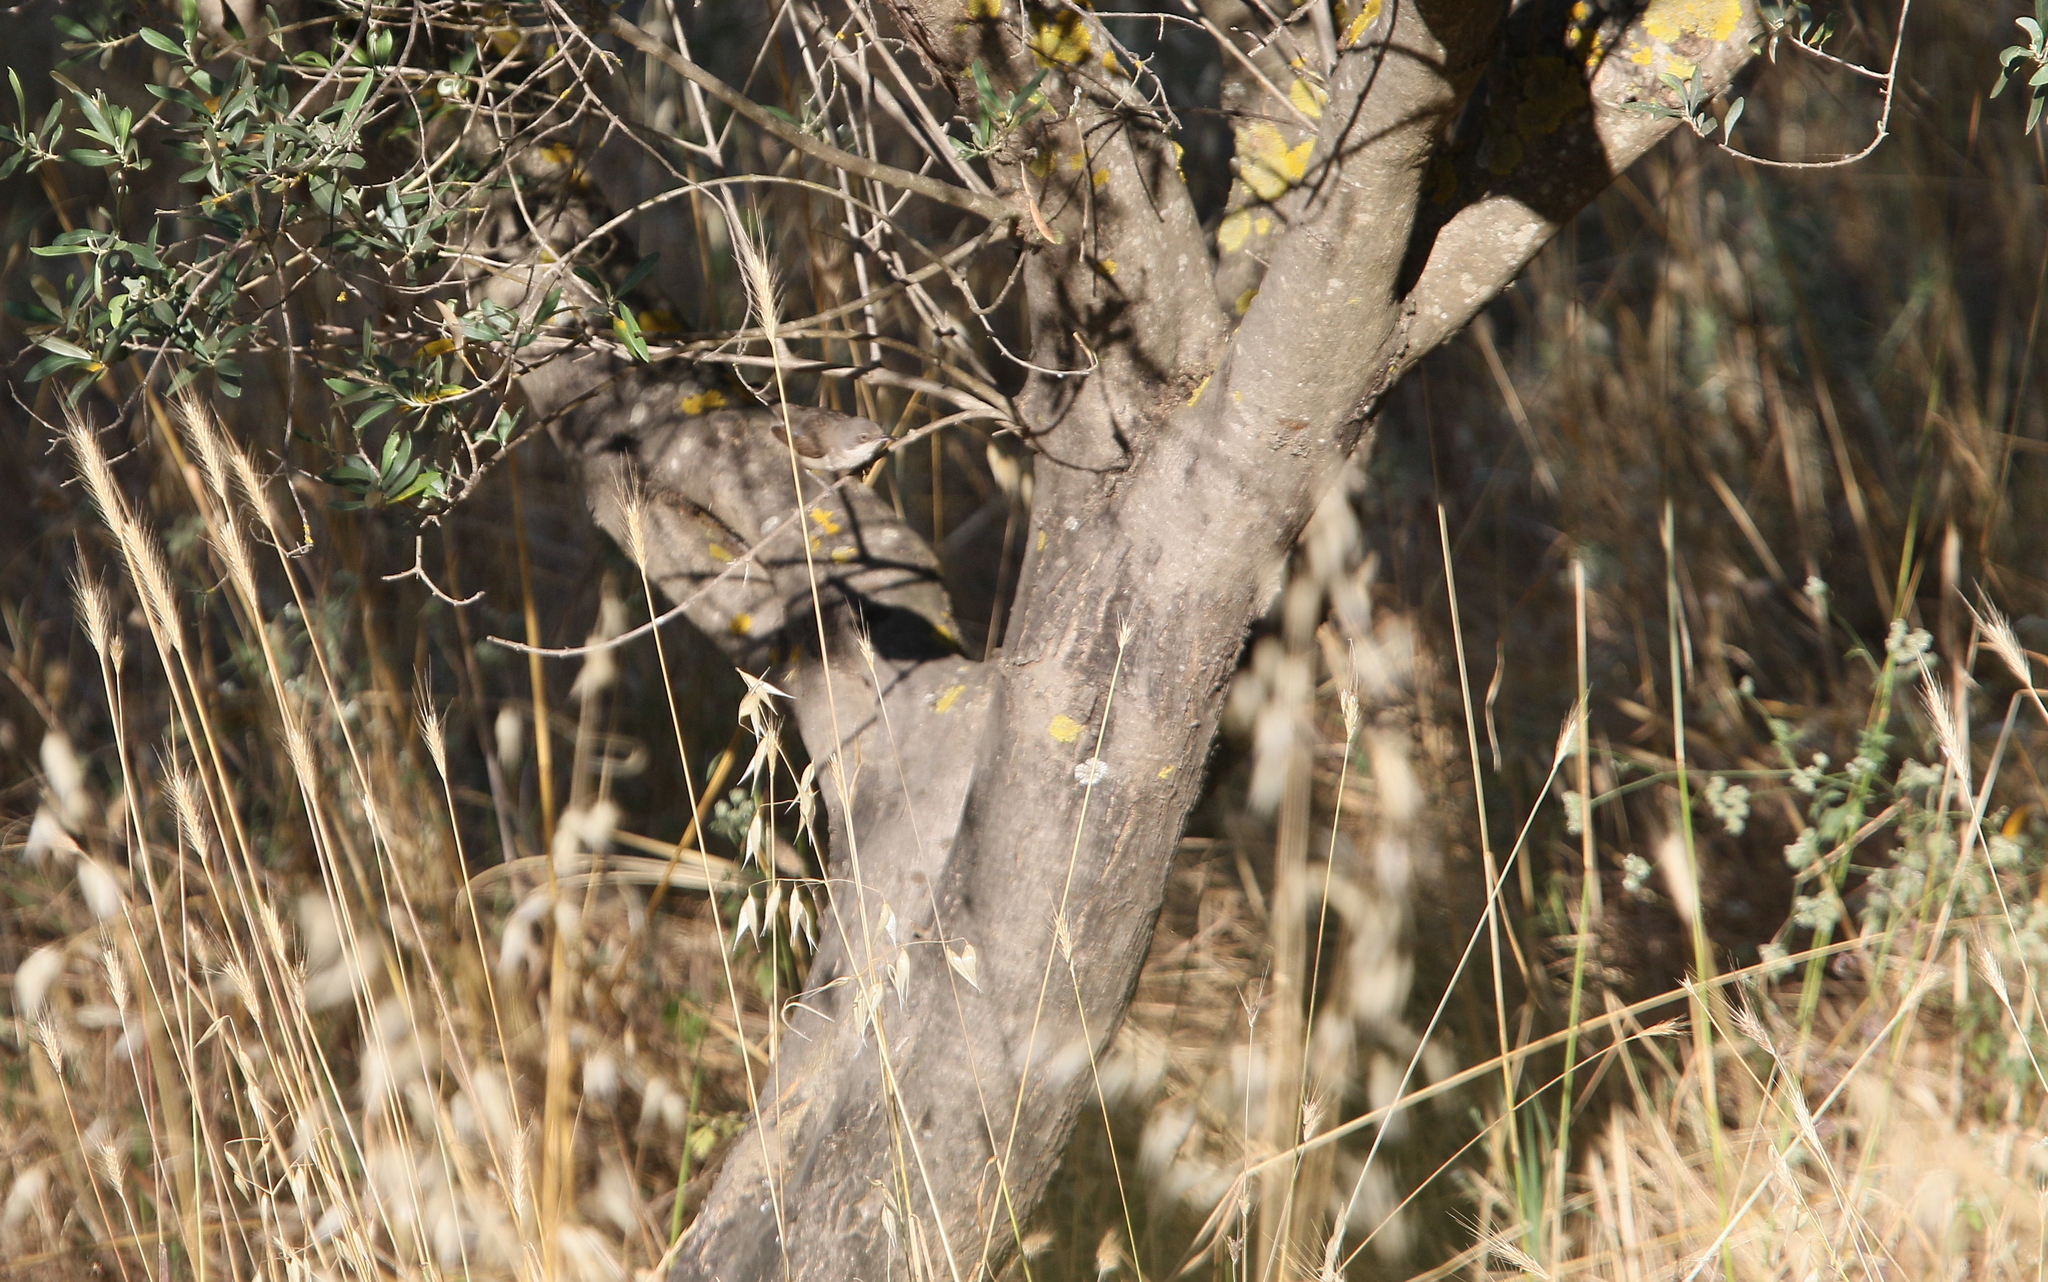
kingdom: Animalia
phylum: Chordata
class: Aves
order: Passeriformes
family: Sylviidae
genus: Sylvia
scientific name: Sylvia crassirostris
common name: Eastern orphean warbler
